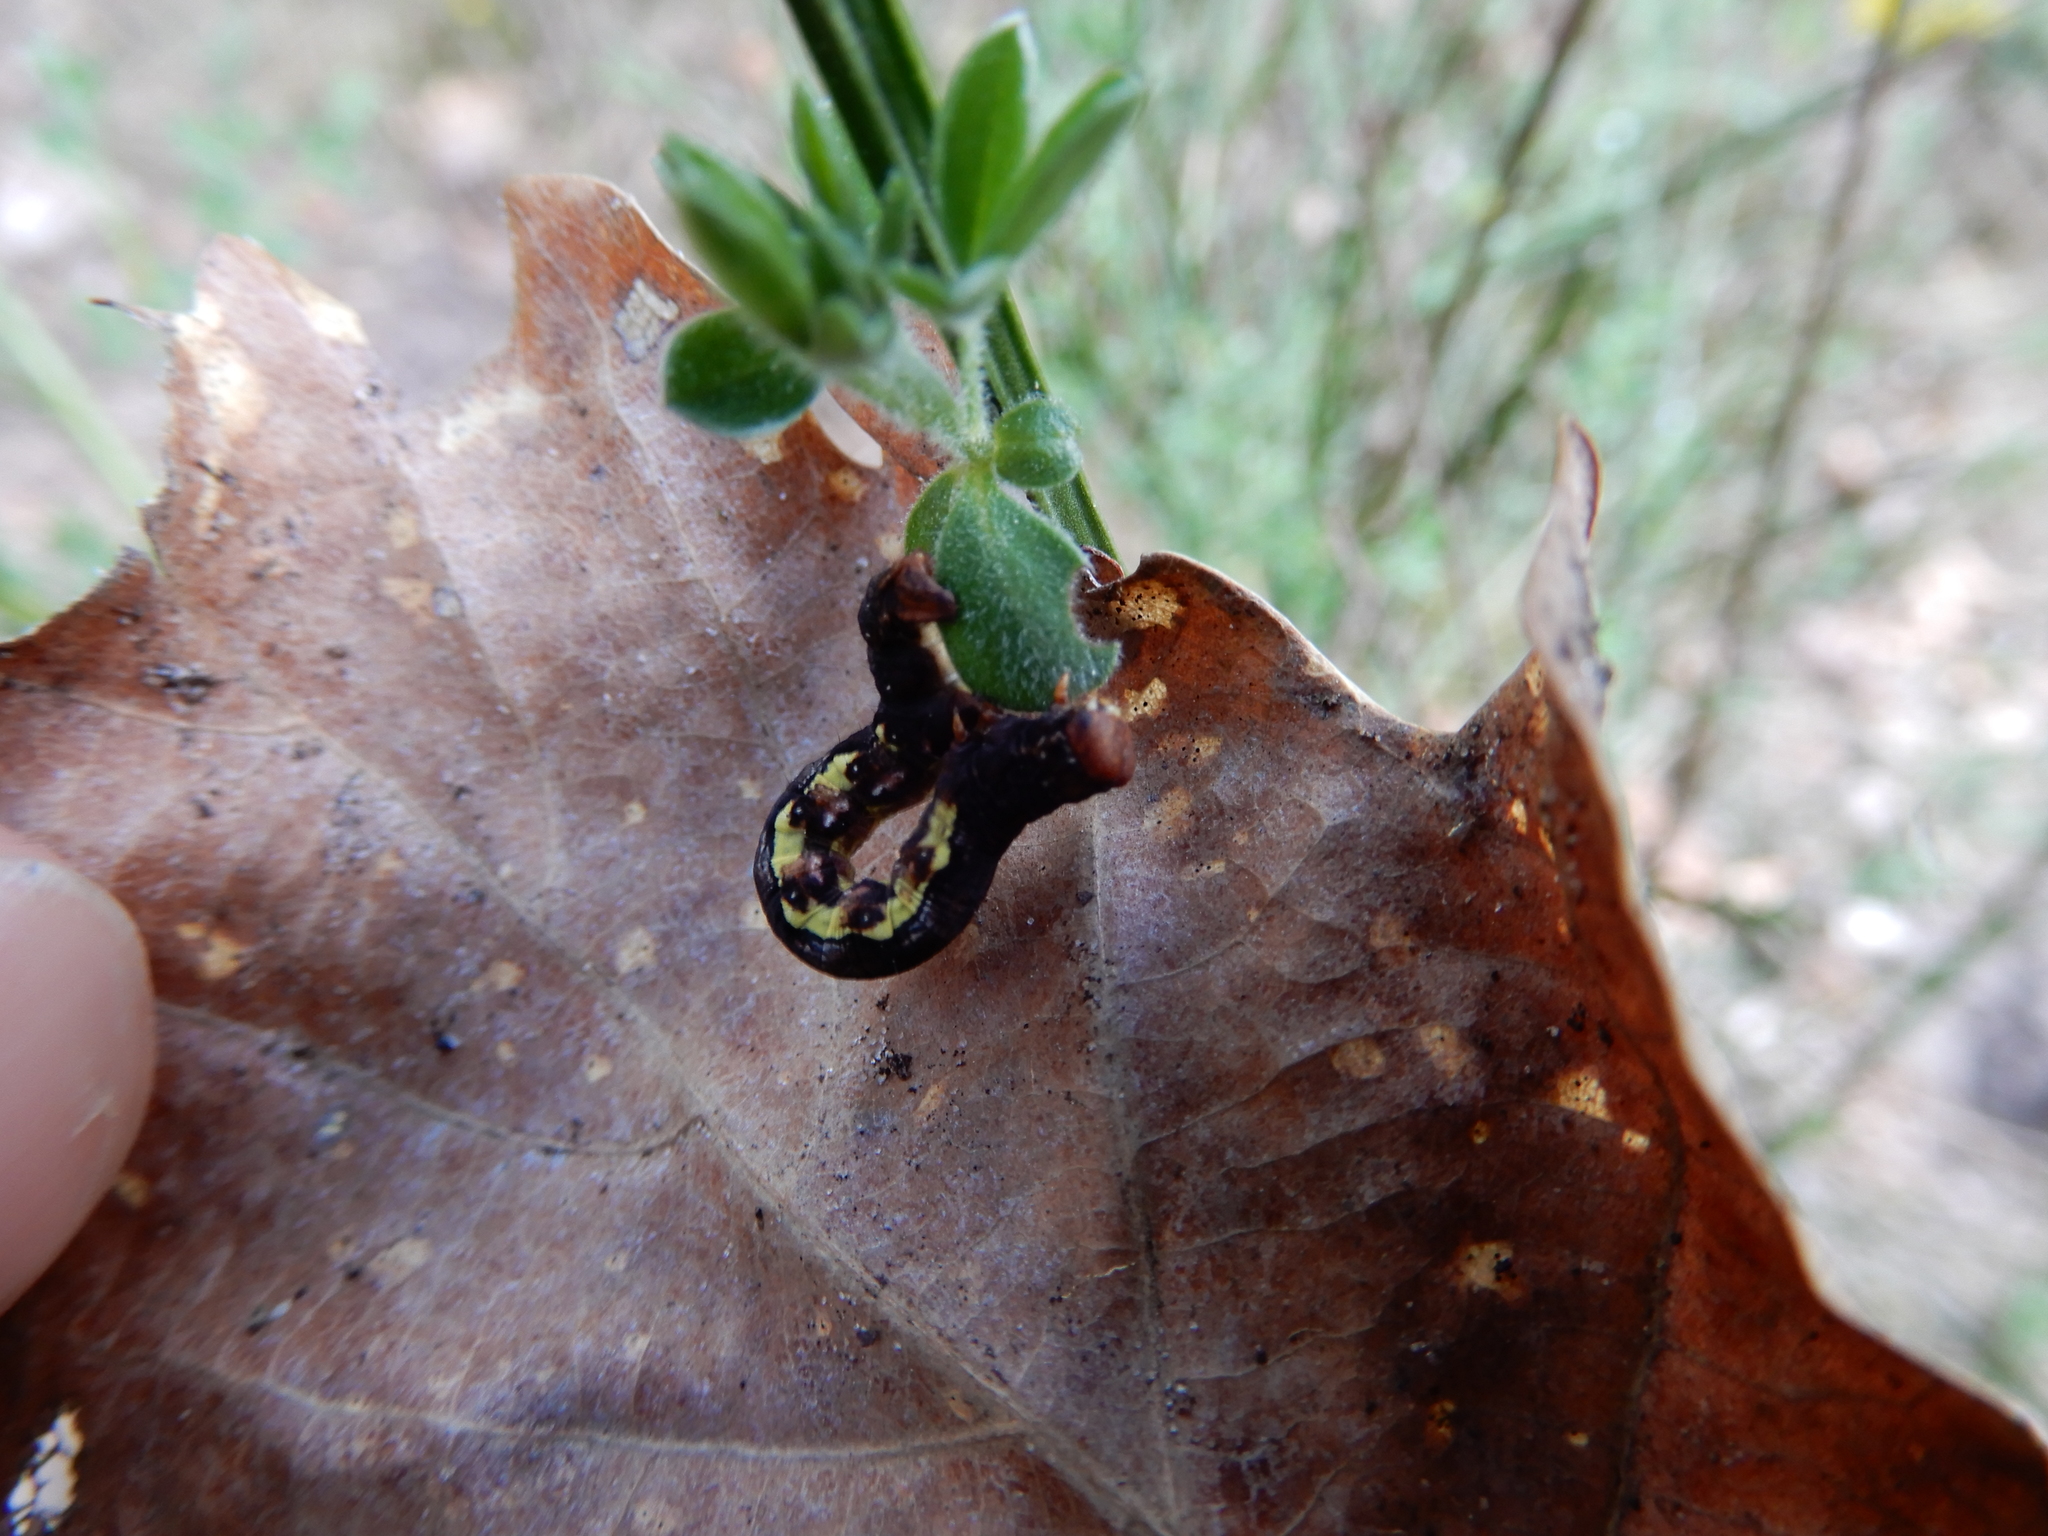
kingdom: Animalia
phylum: Arthropoda
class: Insecta
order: Lepidoptera
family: Geometridae
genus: Erannis
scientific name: Erannis defoliaria
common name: Mottled umber
